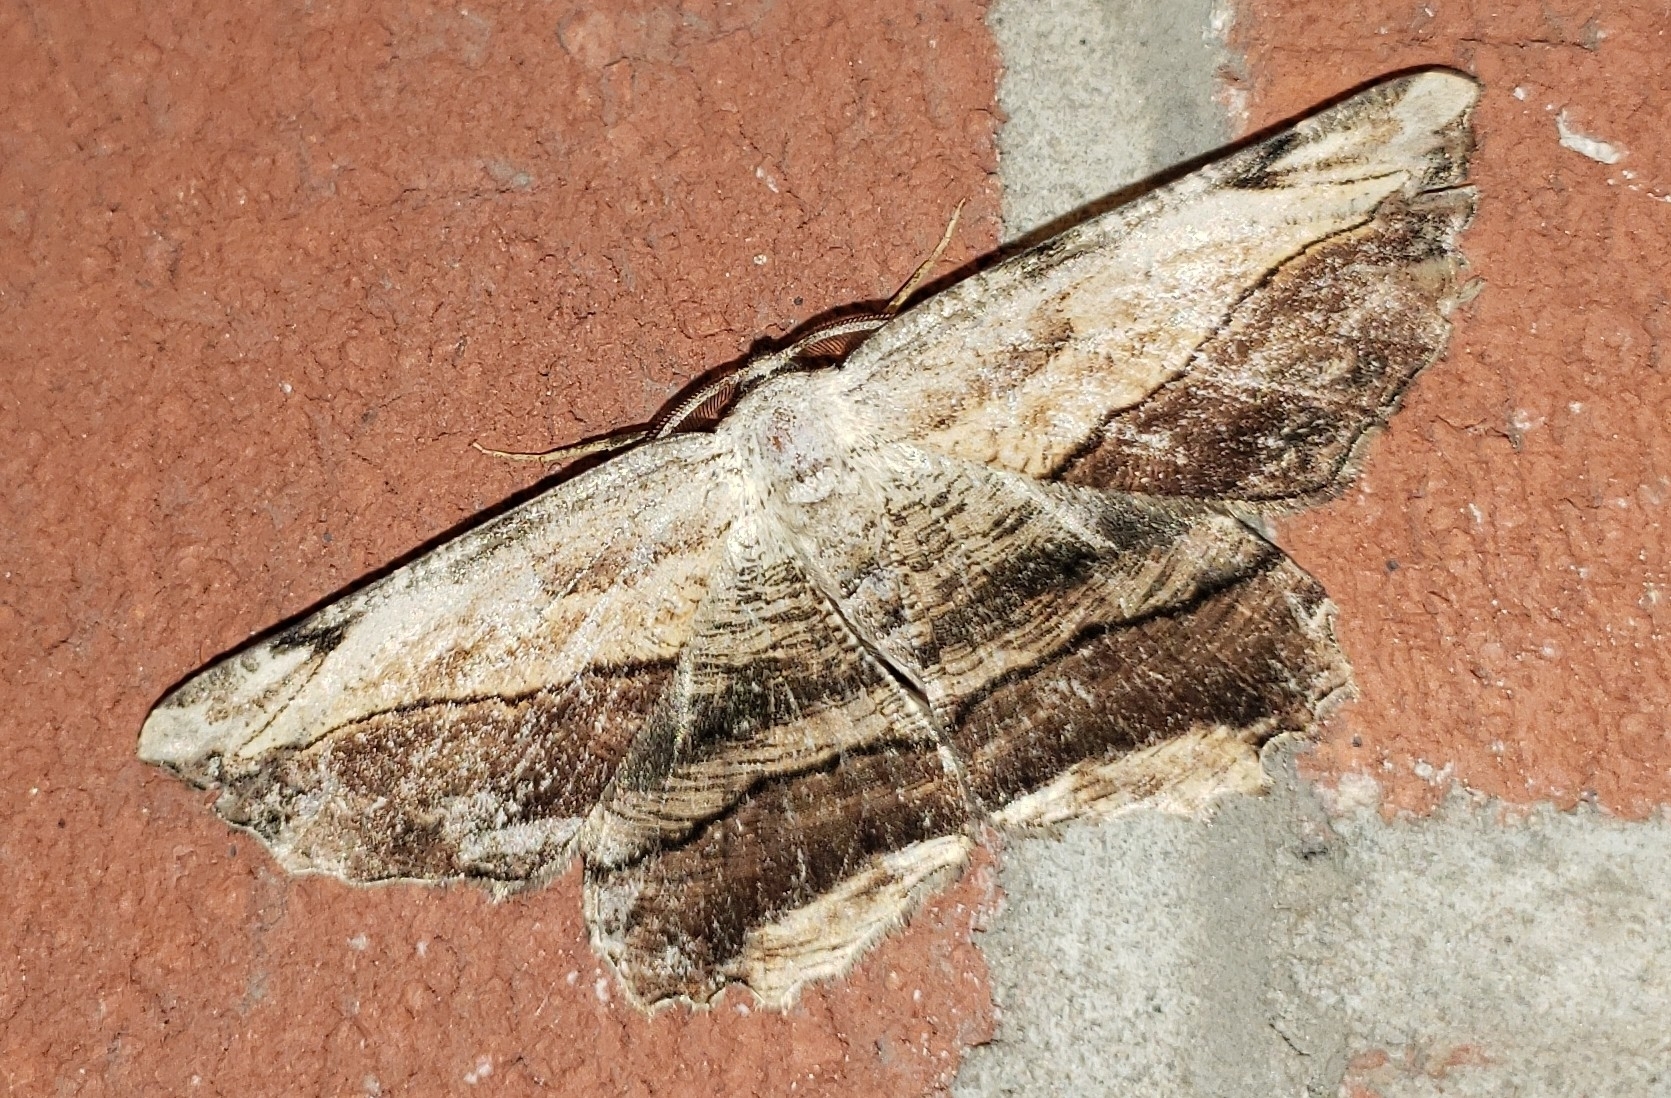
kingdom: Animalia
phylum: Arthropoda
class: Insecta
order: Lepidoptera
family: Geometridae
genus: Lytrosis
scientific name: Lytrosis unitaria
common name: Common lytrosis
